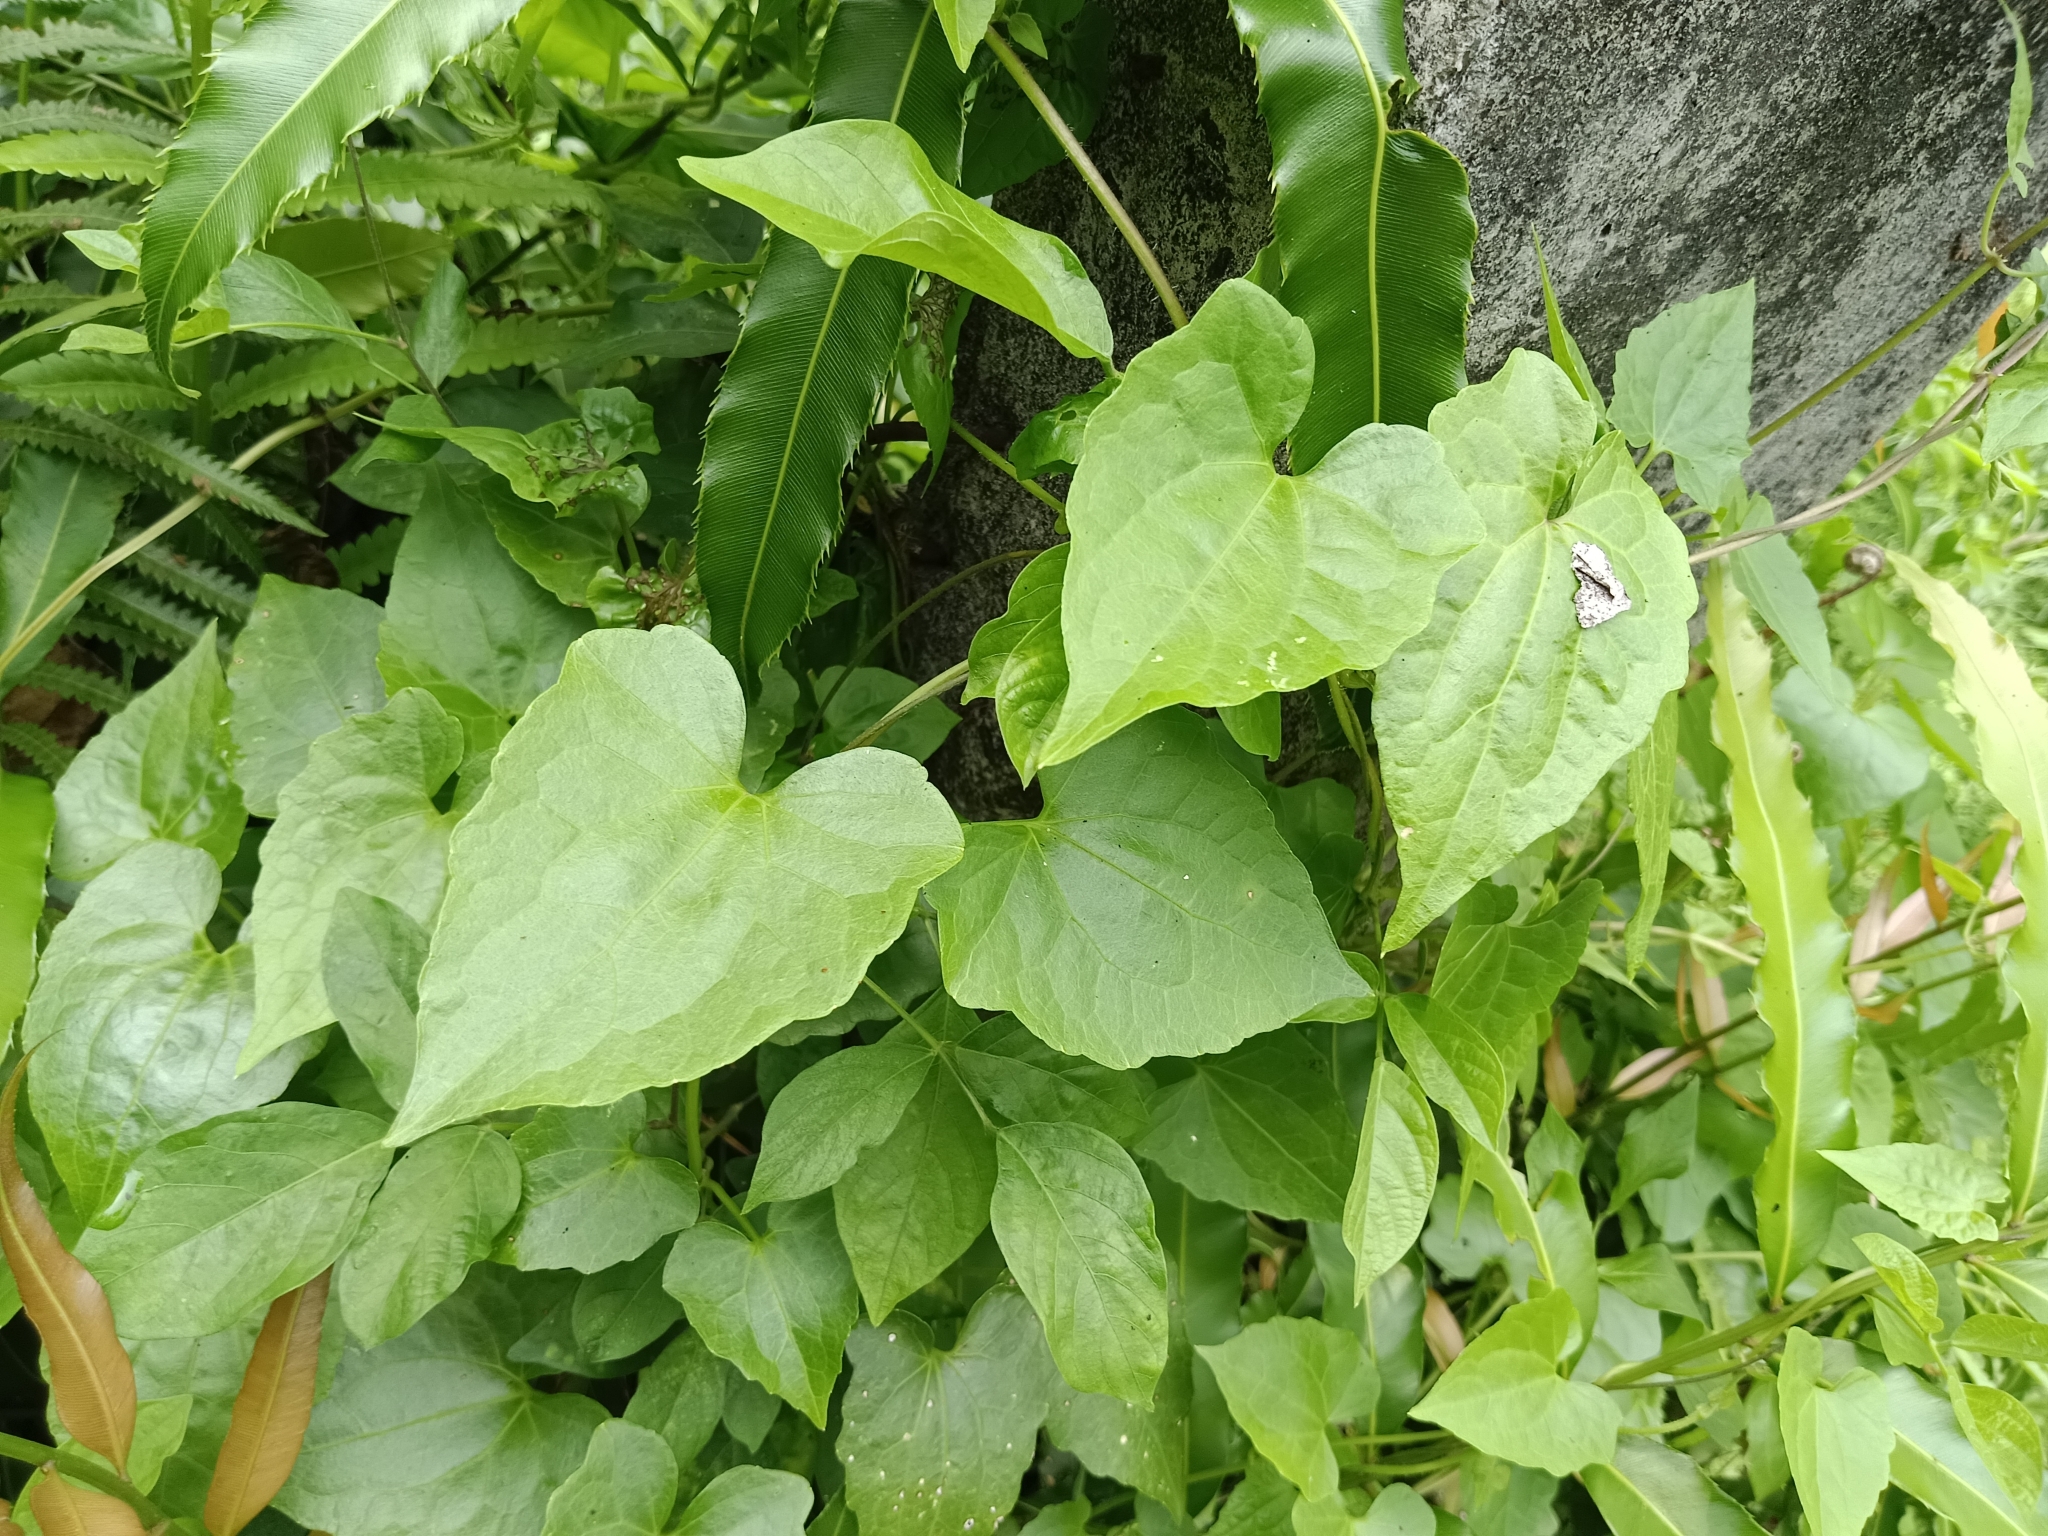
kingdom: Plantae
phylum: Tracheophyta
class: Magnoliopsida
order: Asterales
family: Asteraceae
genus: Mikania
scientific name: Mikania micrantha
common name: Mile-a-minute
